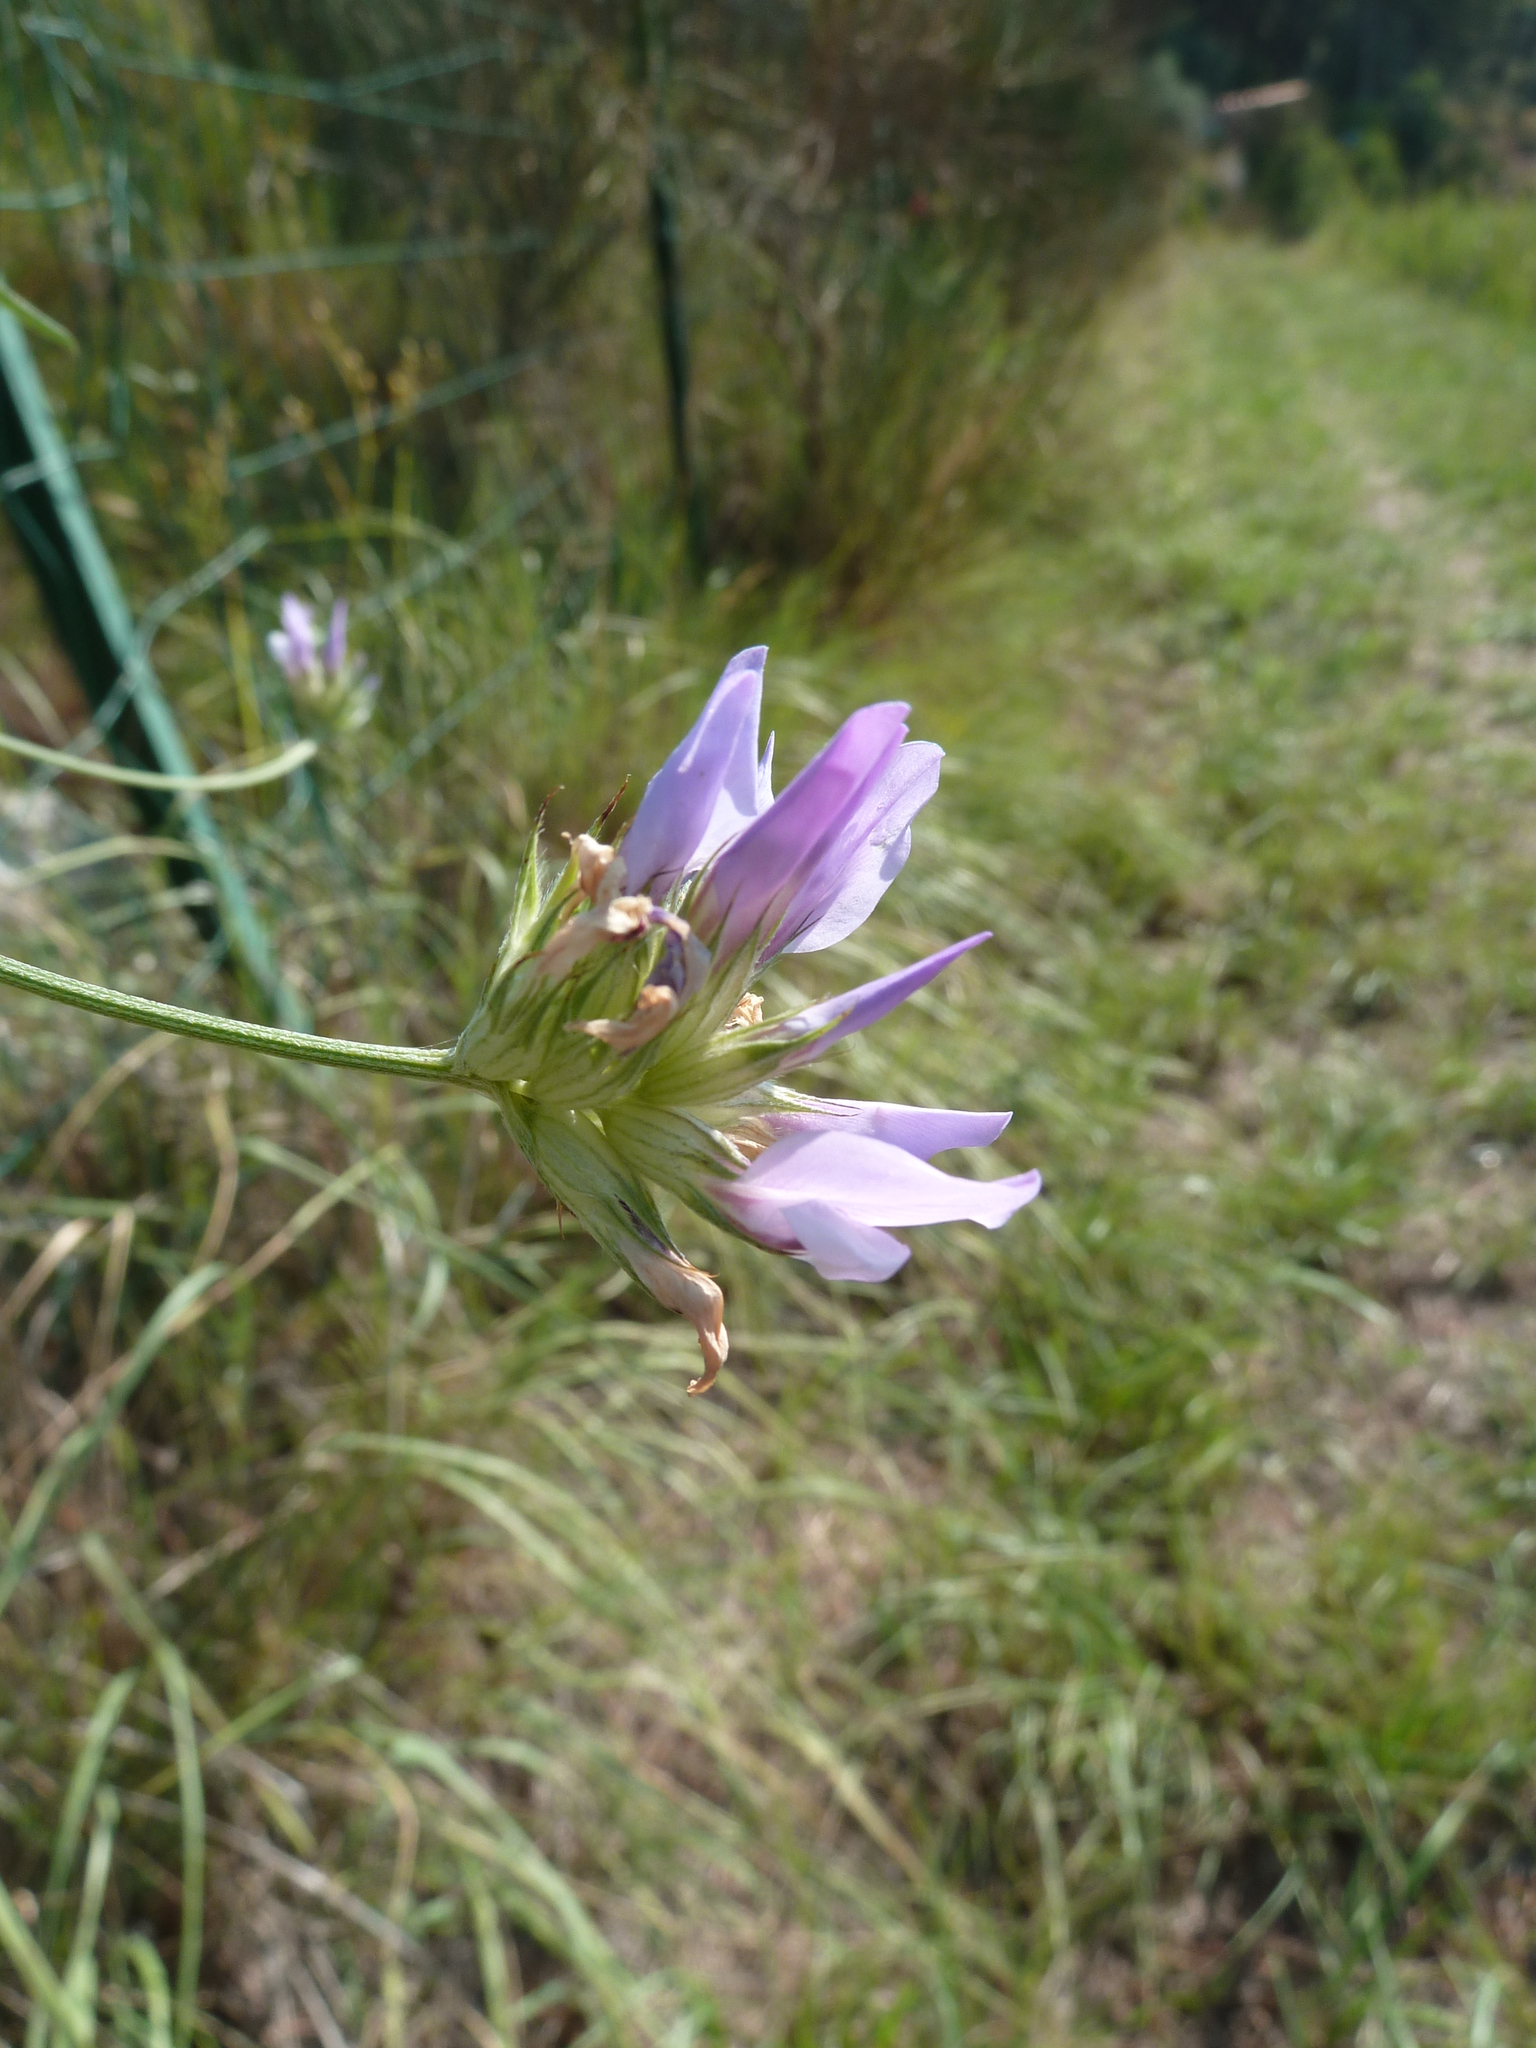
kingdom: Plantae
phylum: Tracheophyta
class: Magnoliopsida
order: Fabales
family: Fabaceae
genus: Bituminaria
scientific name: Bituminaria bituminosa
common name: Arabian pea
